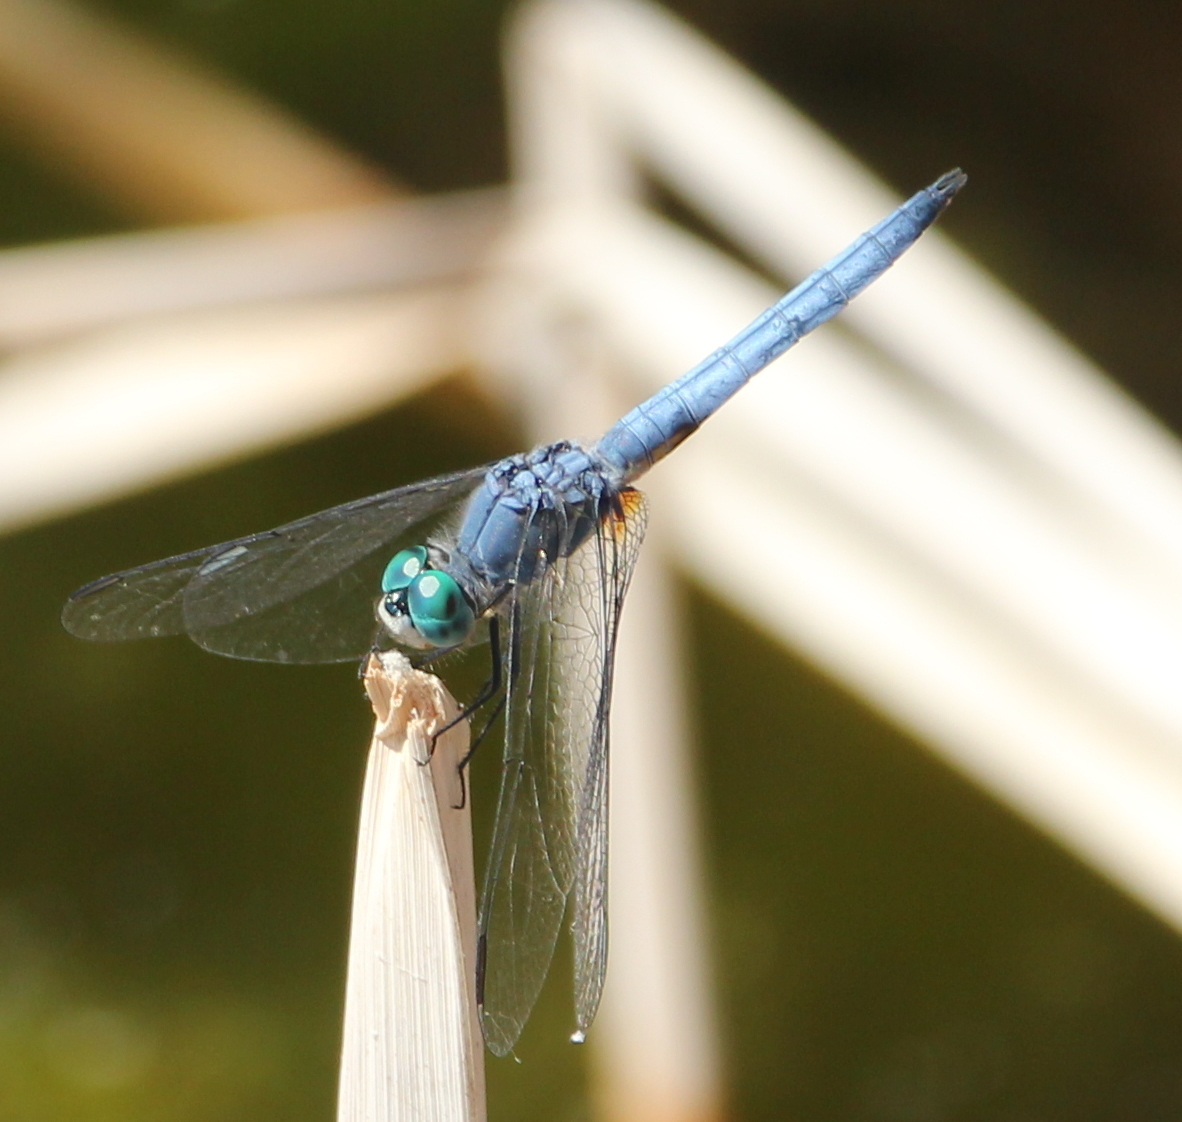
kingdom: Animalia
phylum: Arthropoda
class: Insecta
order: Odonata
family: Libellulidae
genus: Pachydiplax
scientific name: Pachydiplax longipennis
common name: Blue dasher
